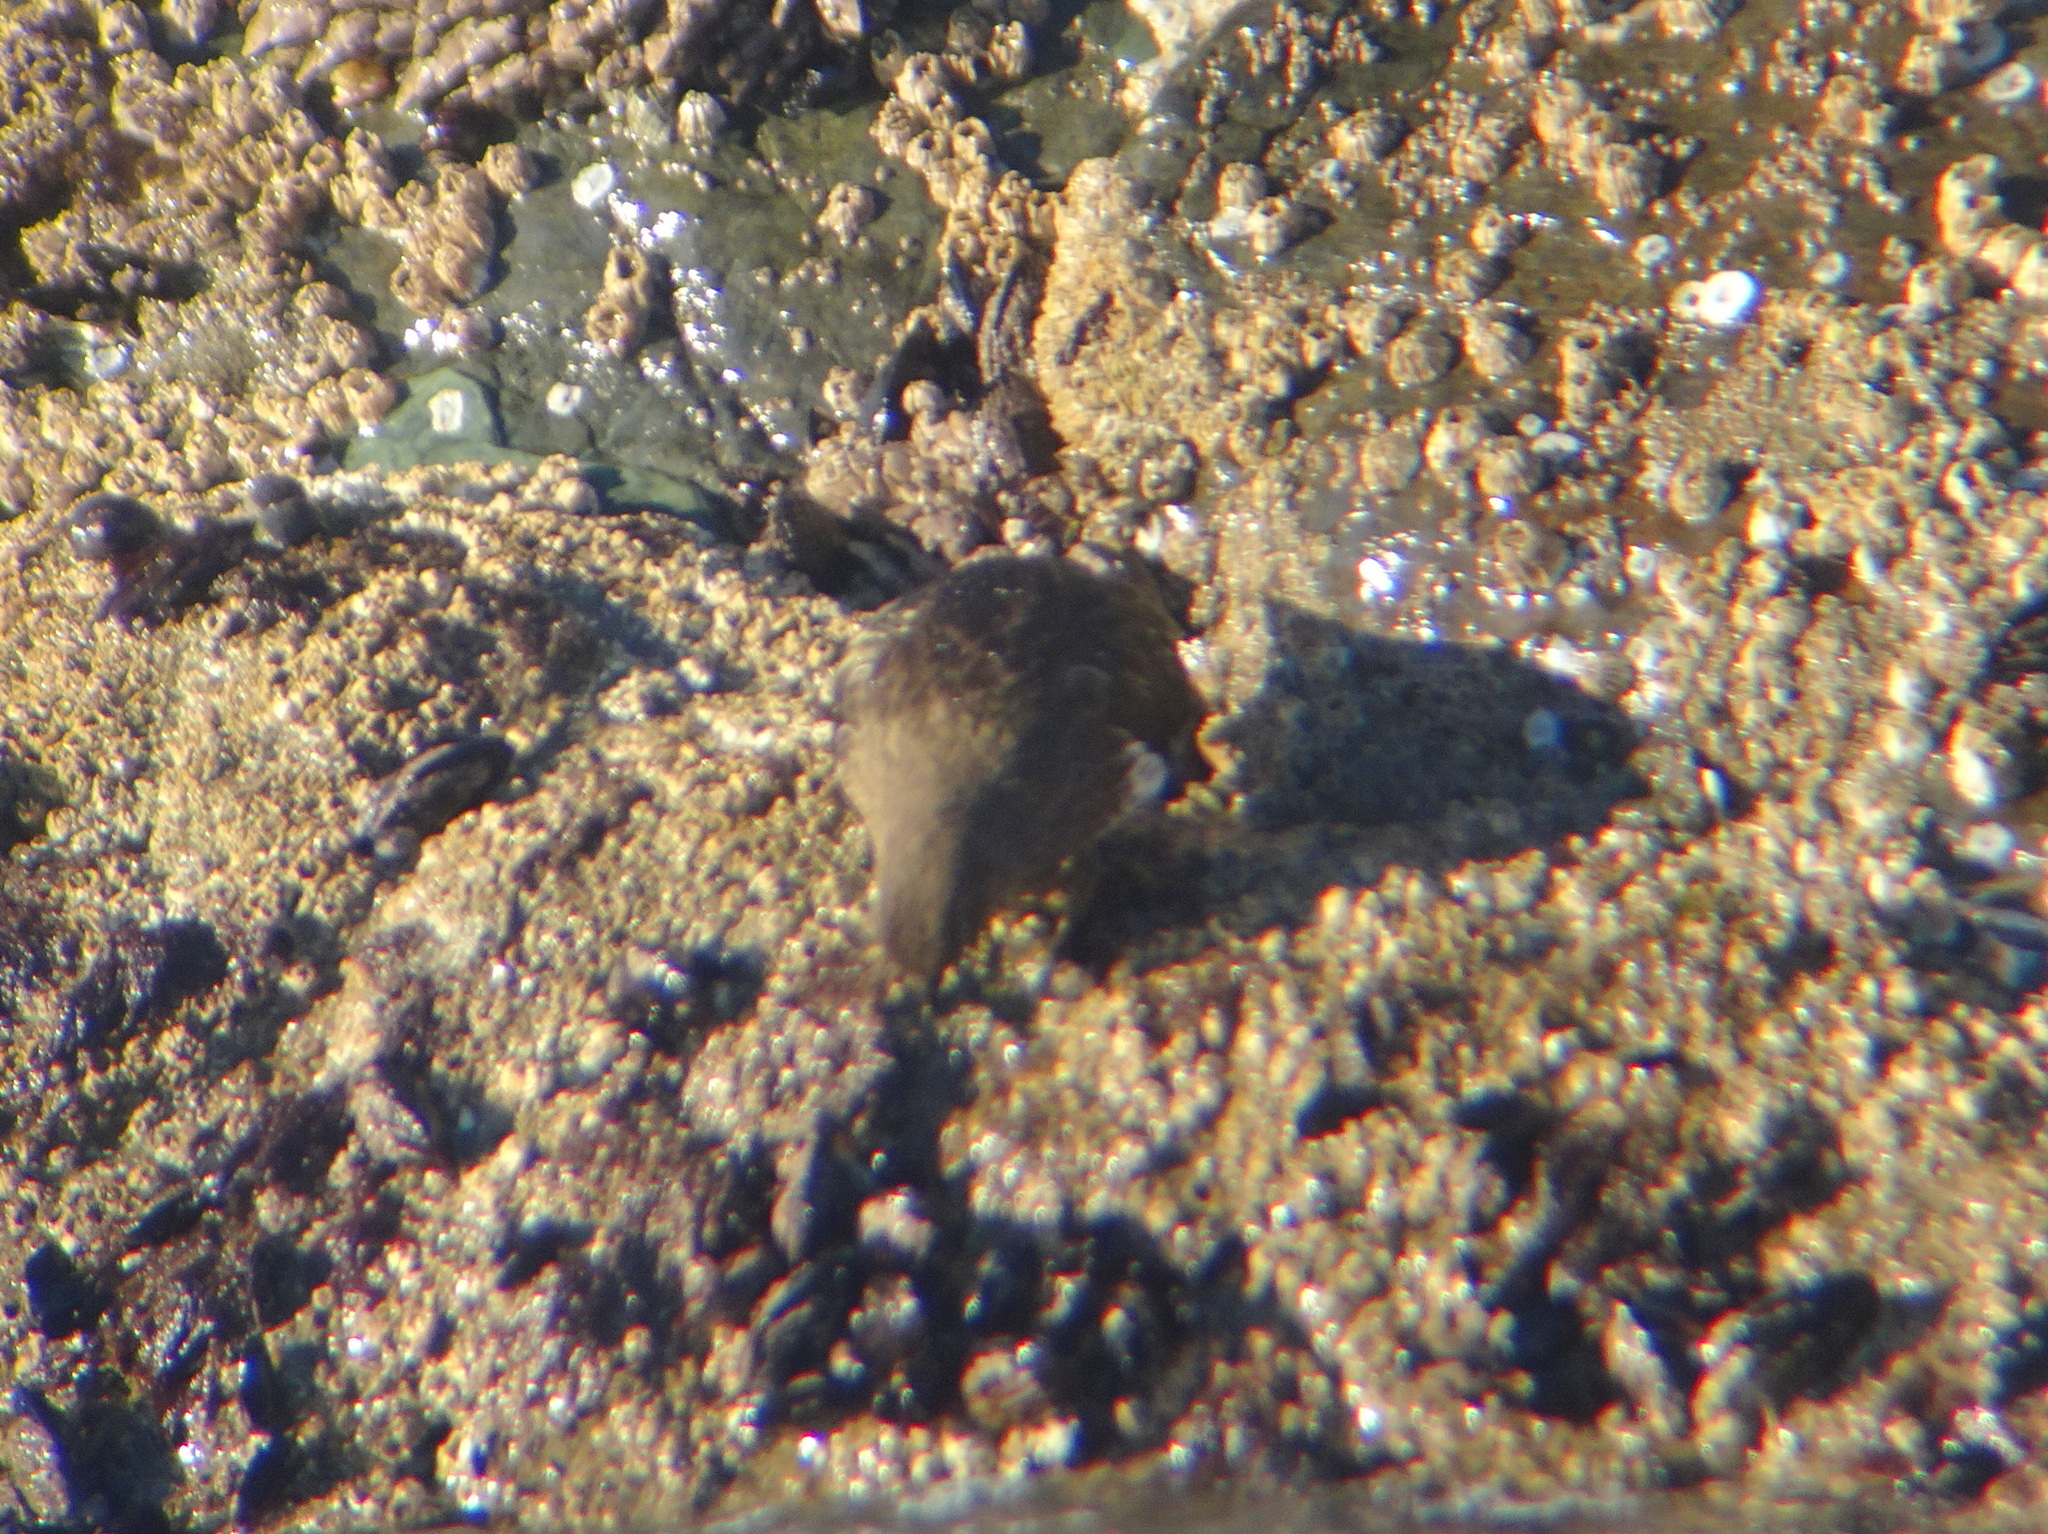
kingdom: Animalia
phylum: Chordata
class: Aves
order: Charadriiformes
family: Scolopacidae
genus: Arenaria
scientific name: Arenaria melanocephala
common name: Black turnstone
